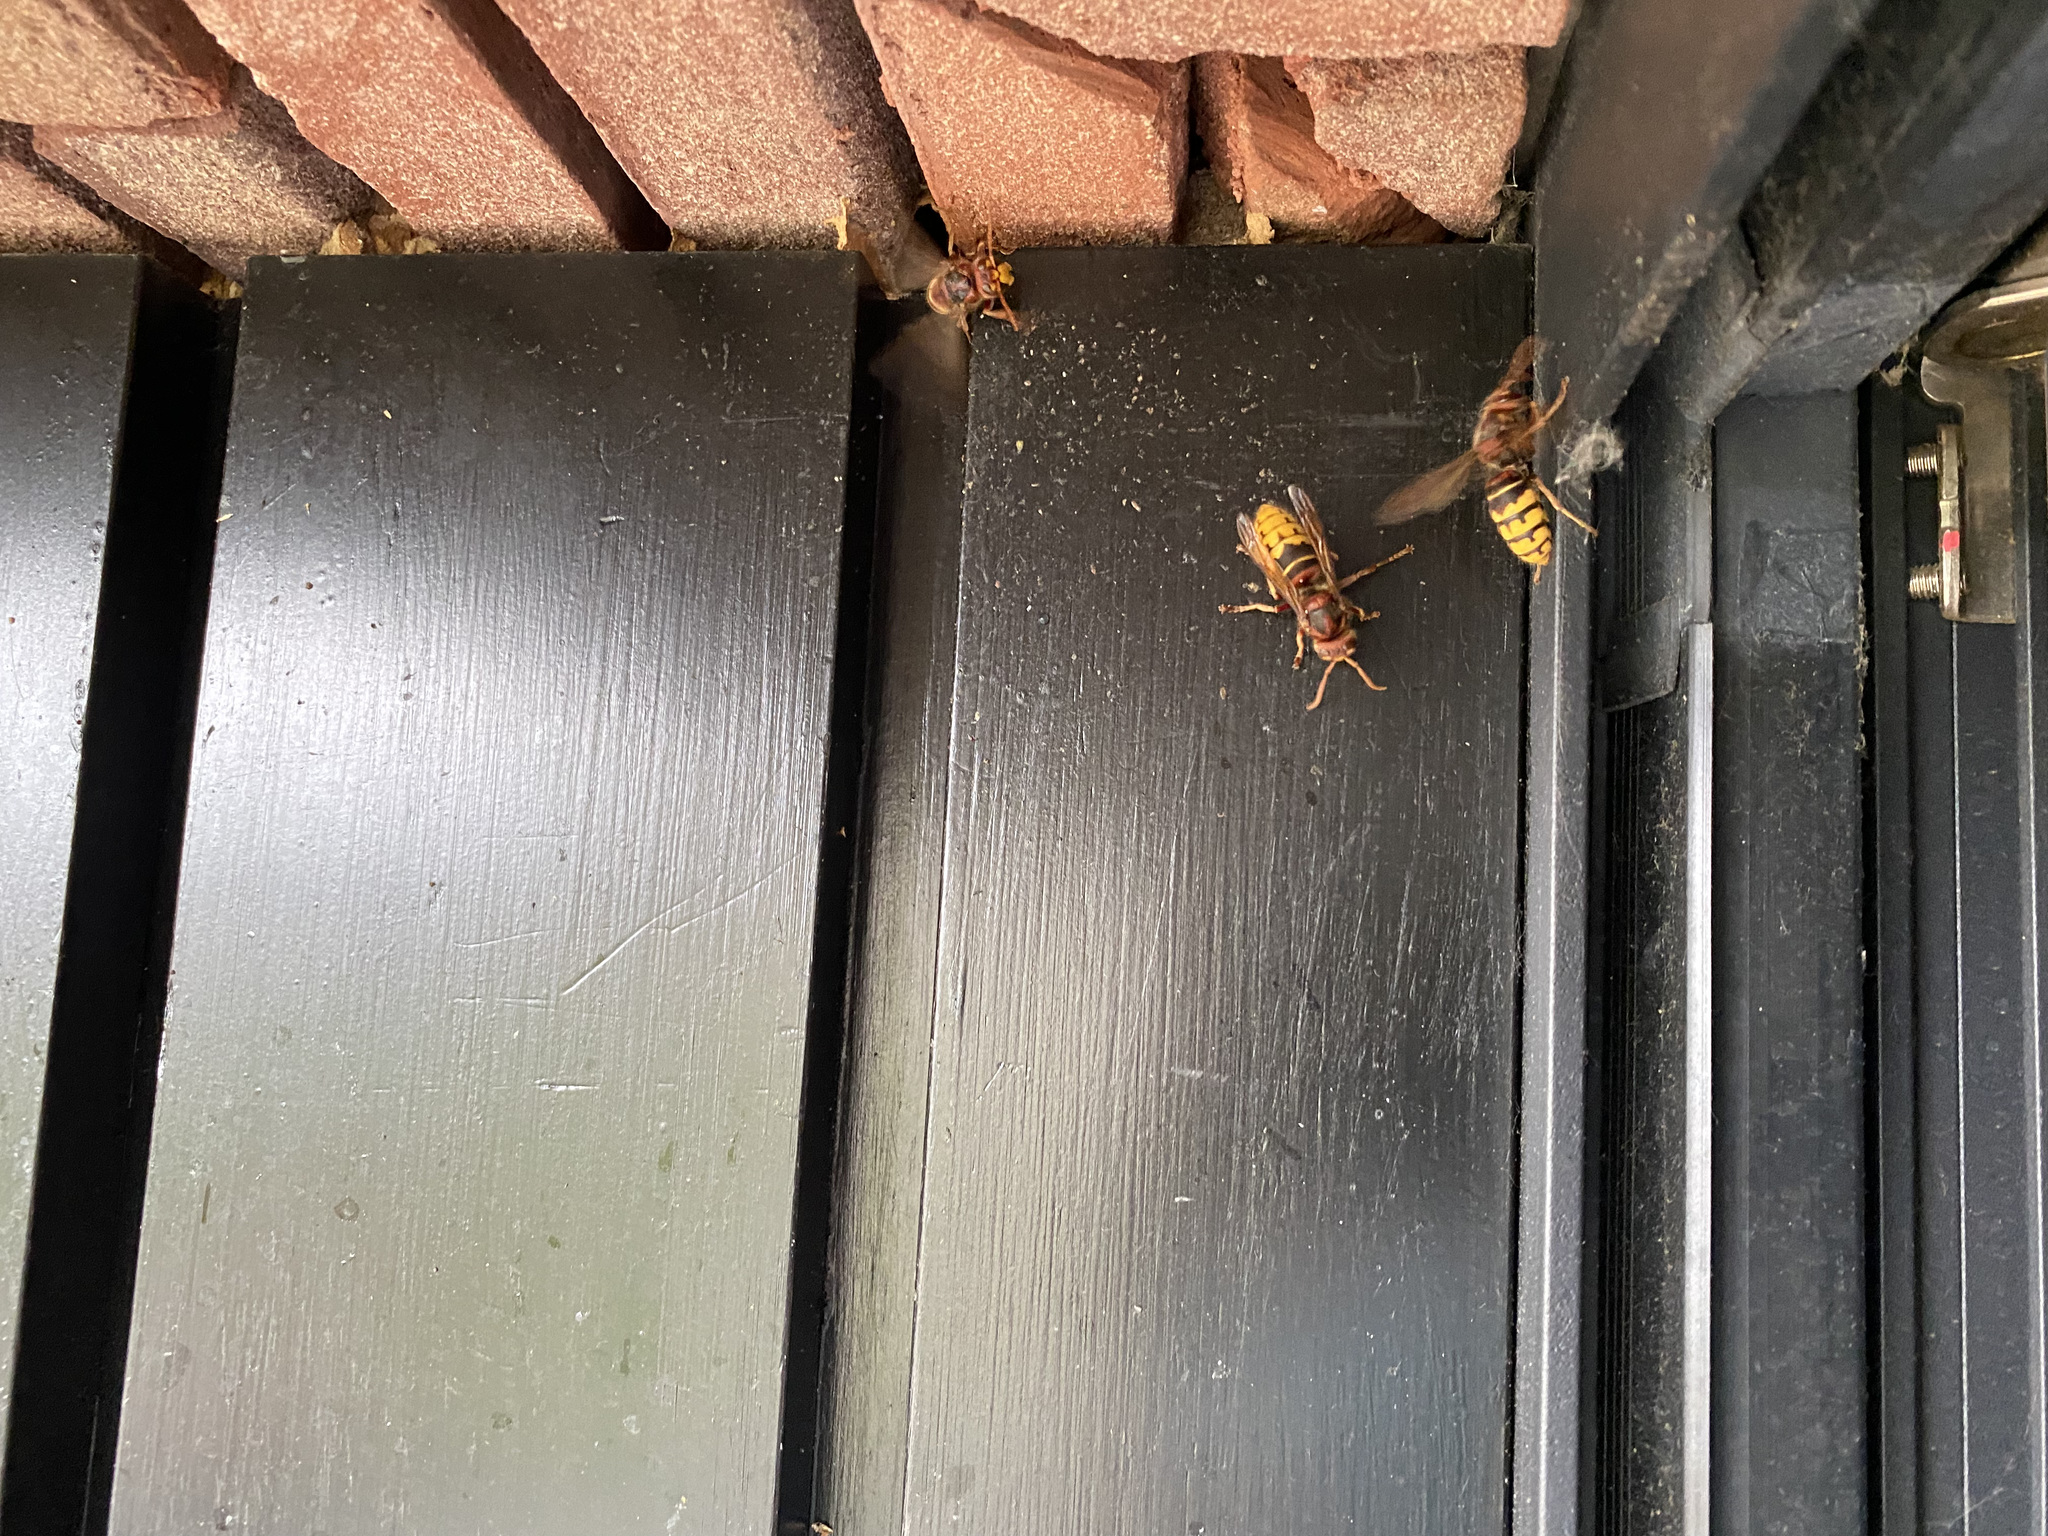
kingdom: Animalia
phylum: Arthropoda
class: Insecta
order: Hymenoptera
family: Vespidae
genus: Vespa
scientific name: Vespa crabro
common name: Hornet
